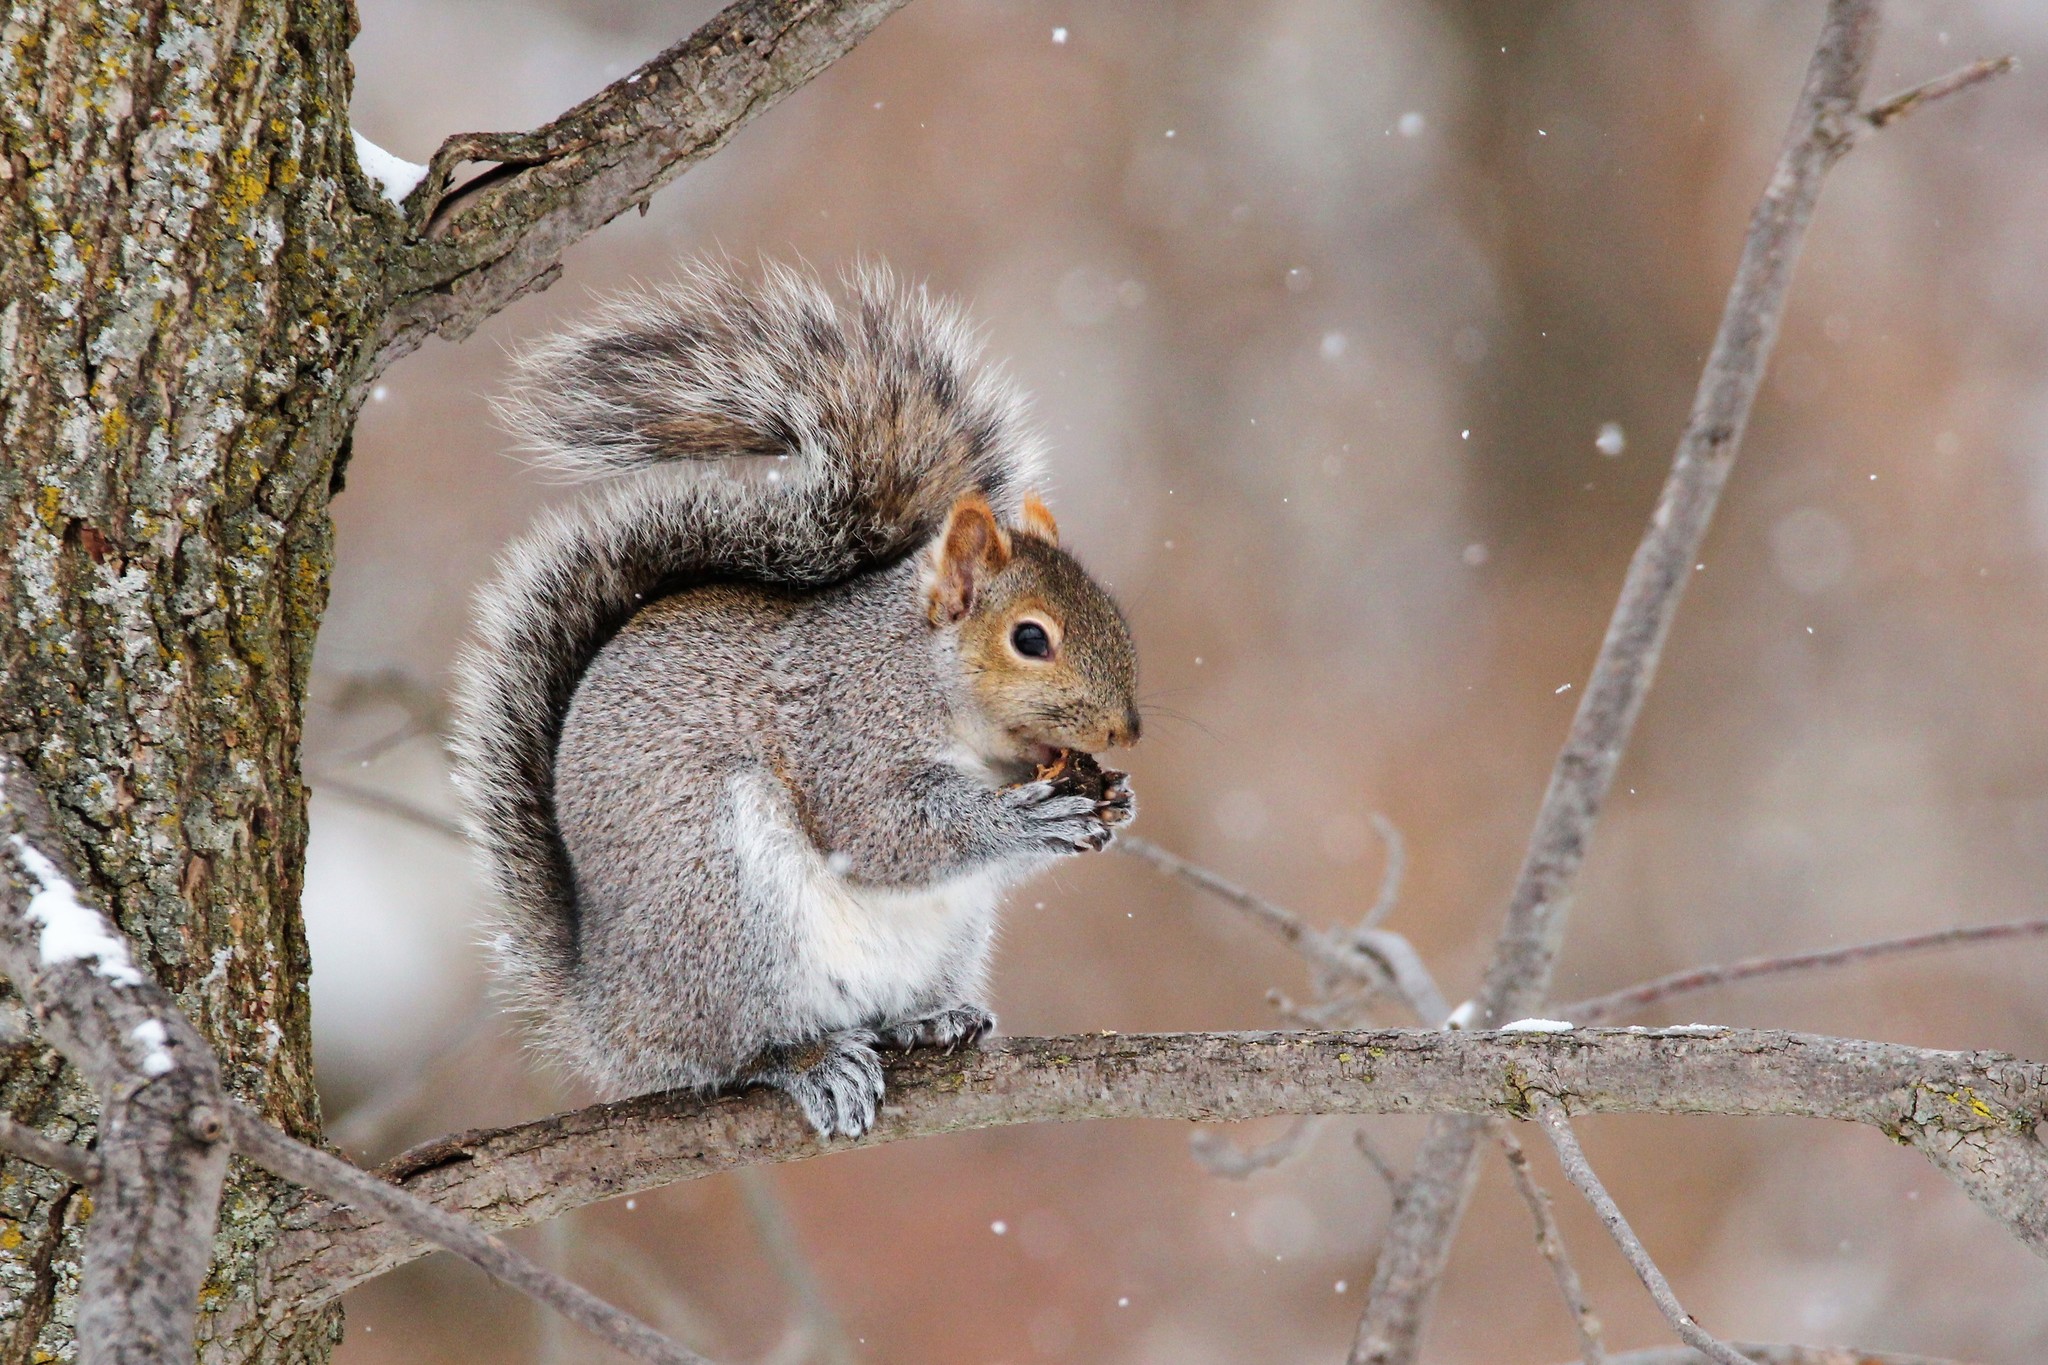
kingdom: Animalia
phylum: Chordata
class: Mammalia
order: Rodentia
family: Sciuridae
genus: Sciurus
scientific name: Sciurus carolinensis
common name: Eastern gray squirrel
